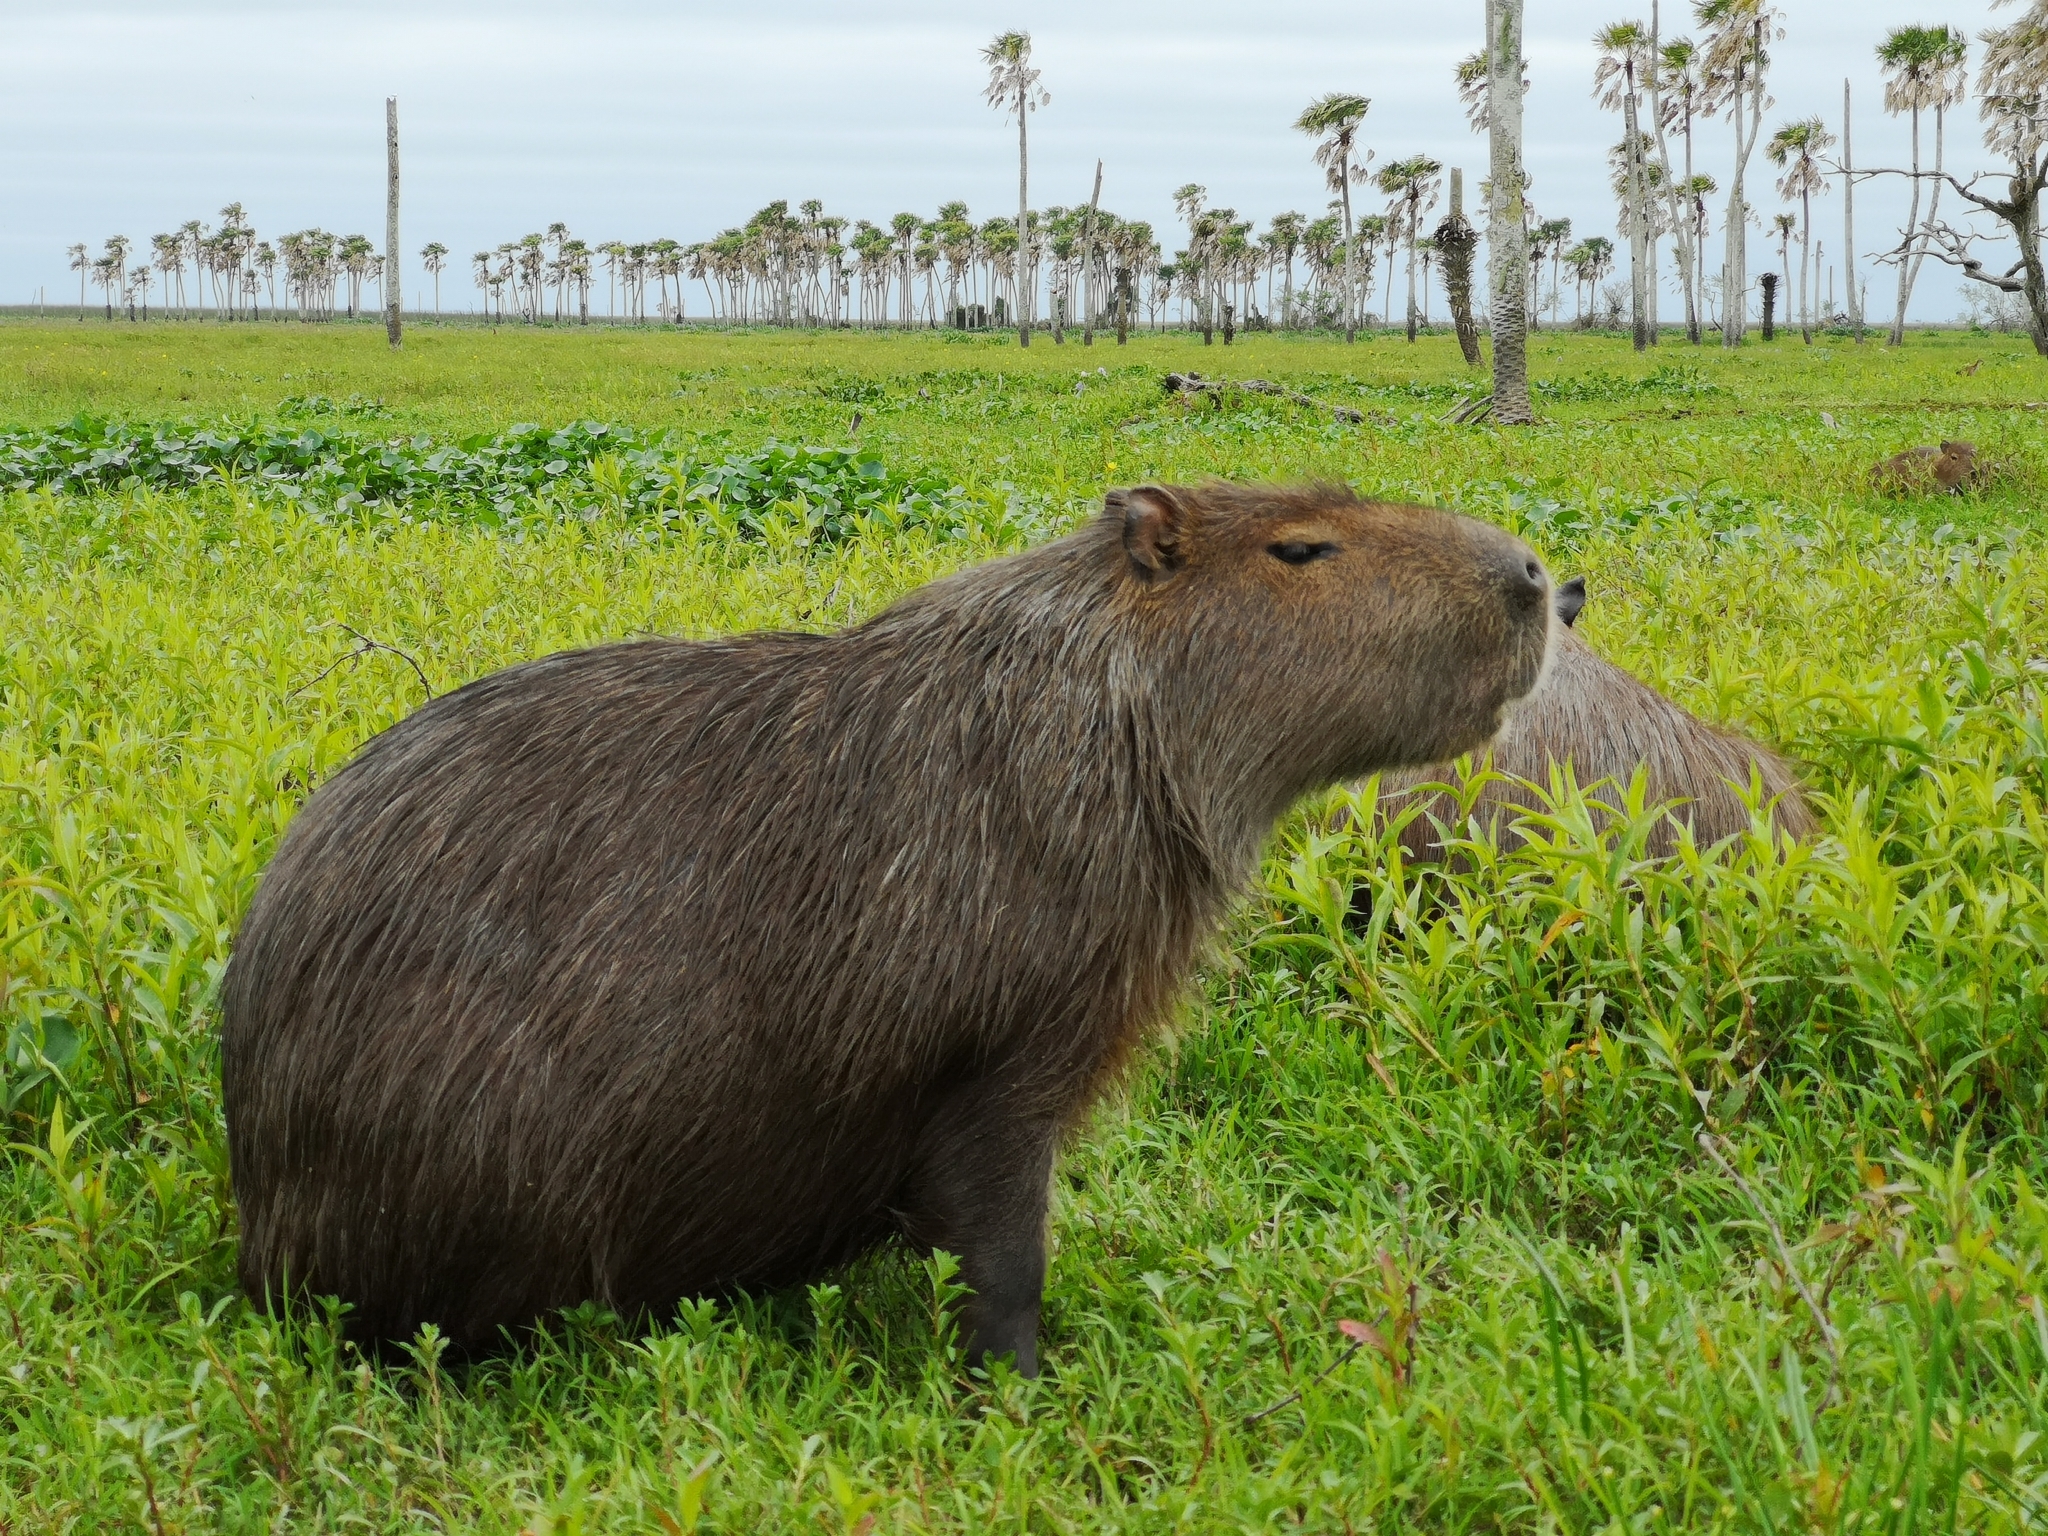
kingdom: Animalia
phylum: Chordata
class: Mammalia
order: Rodentia
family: Caviidae
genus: Hydrochoerus
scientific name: Hydrochoerus hydrochaeris
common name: Capybara
